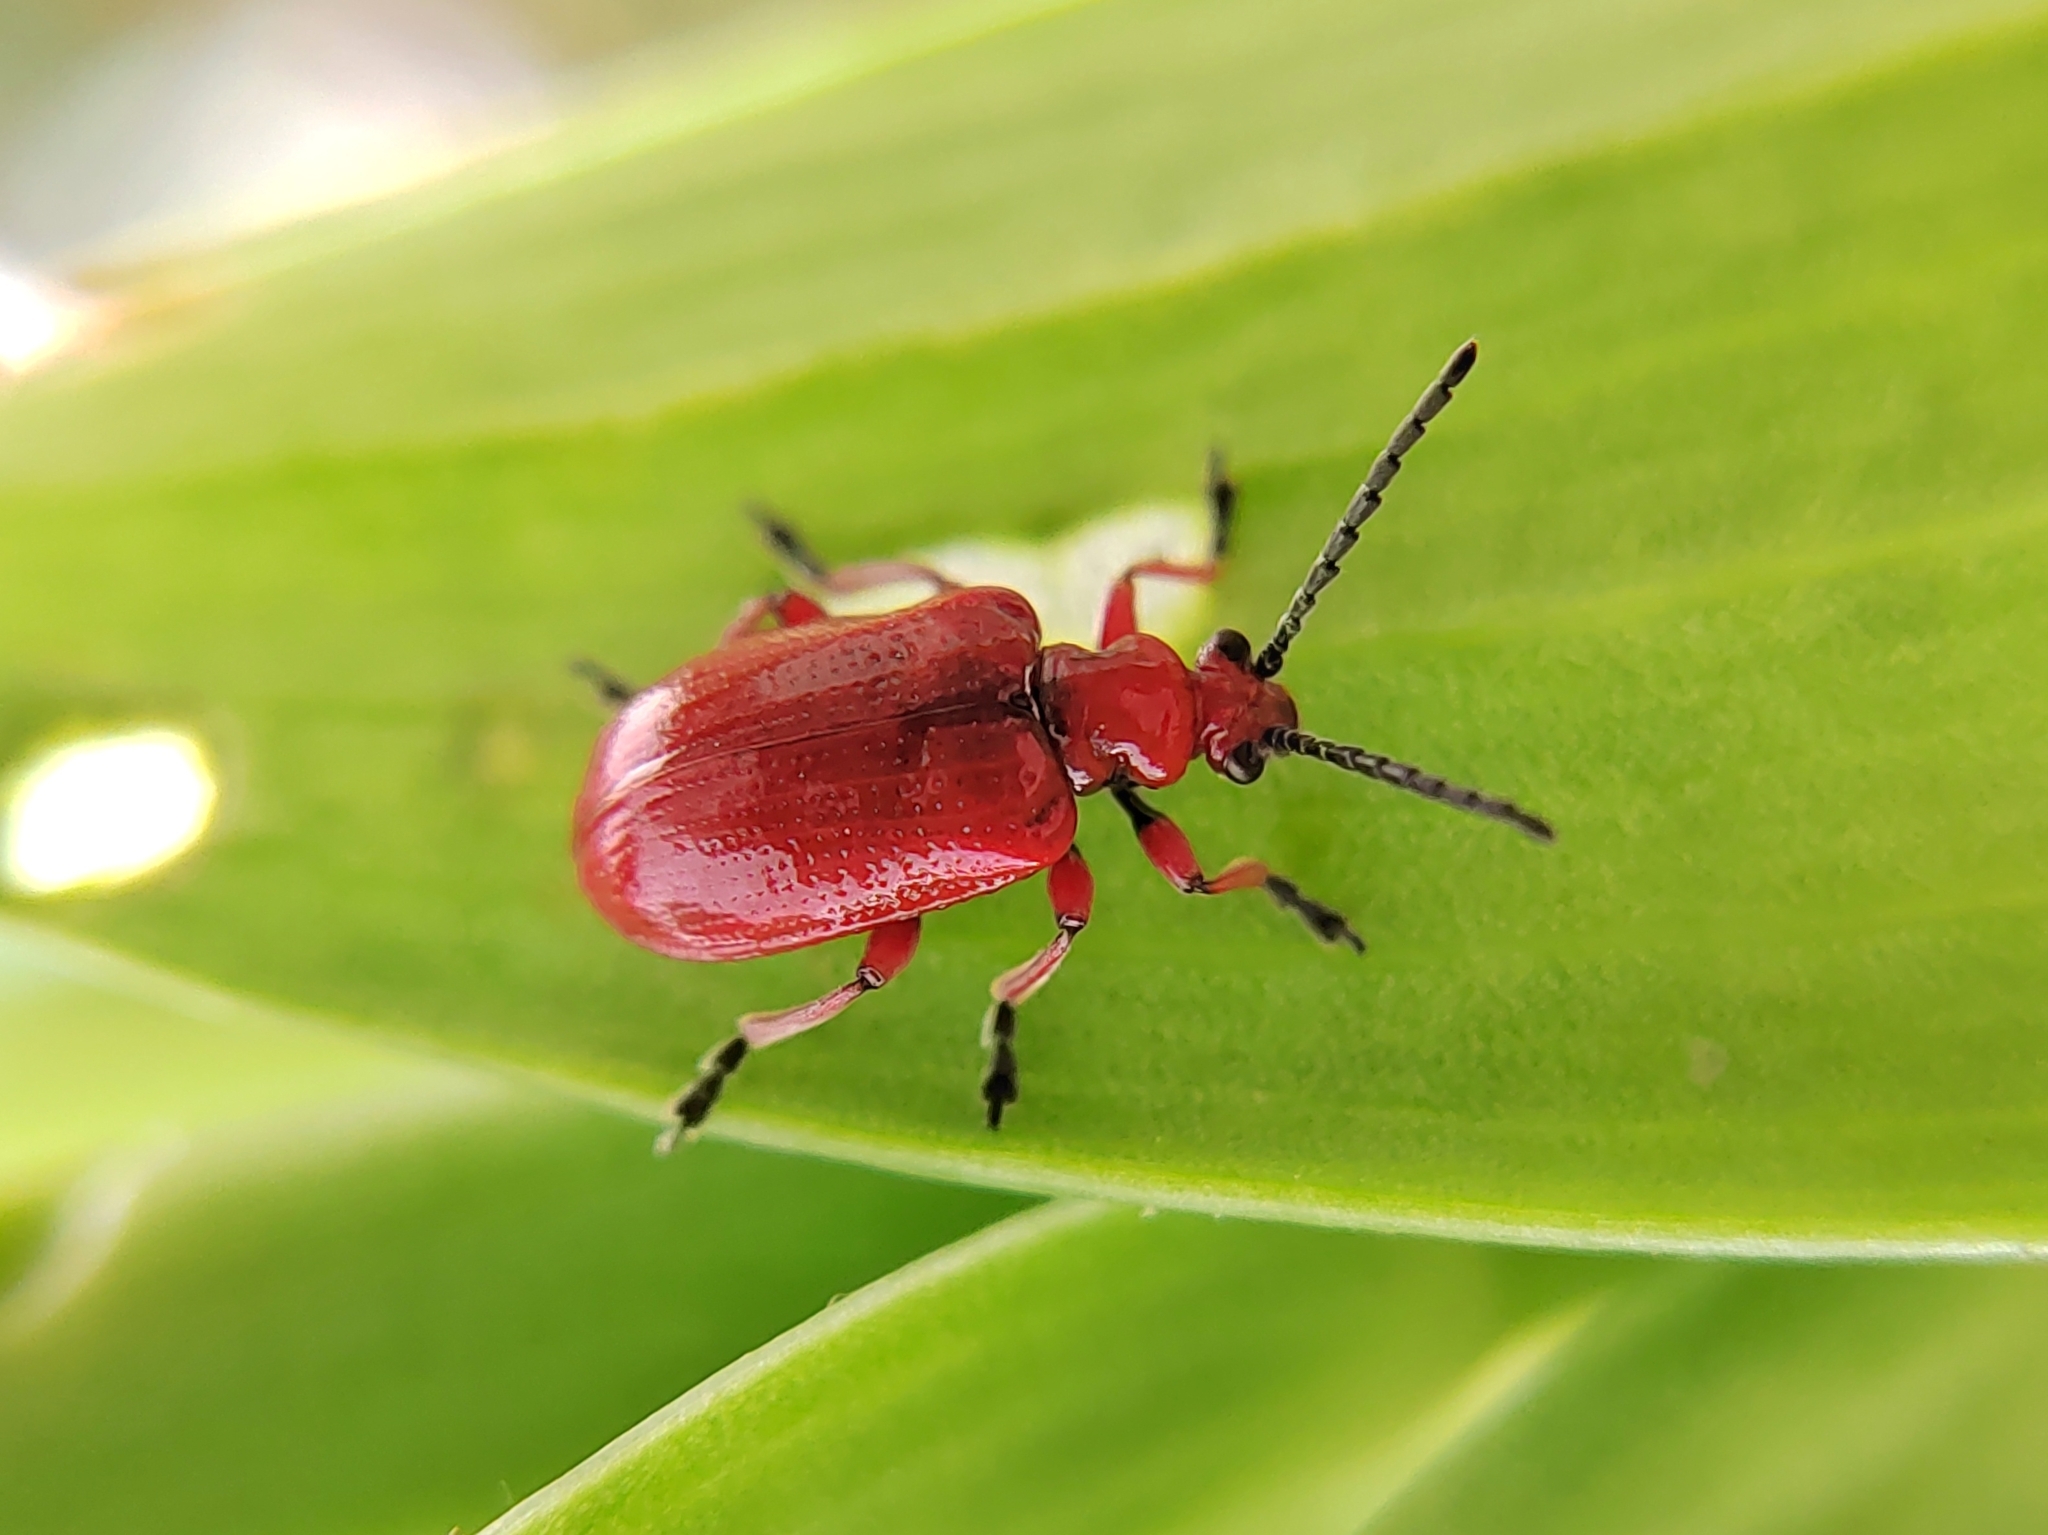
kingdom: Animalia
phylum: Arthropoda
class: Insecta
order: Coleoptera
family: Chrysomelidae
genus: Lilioceris
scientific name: Lilioceris faldermanni
